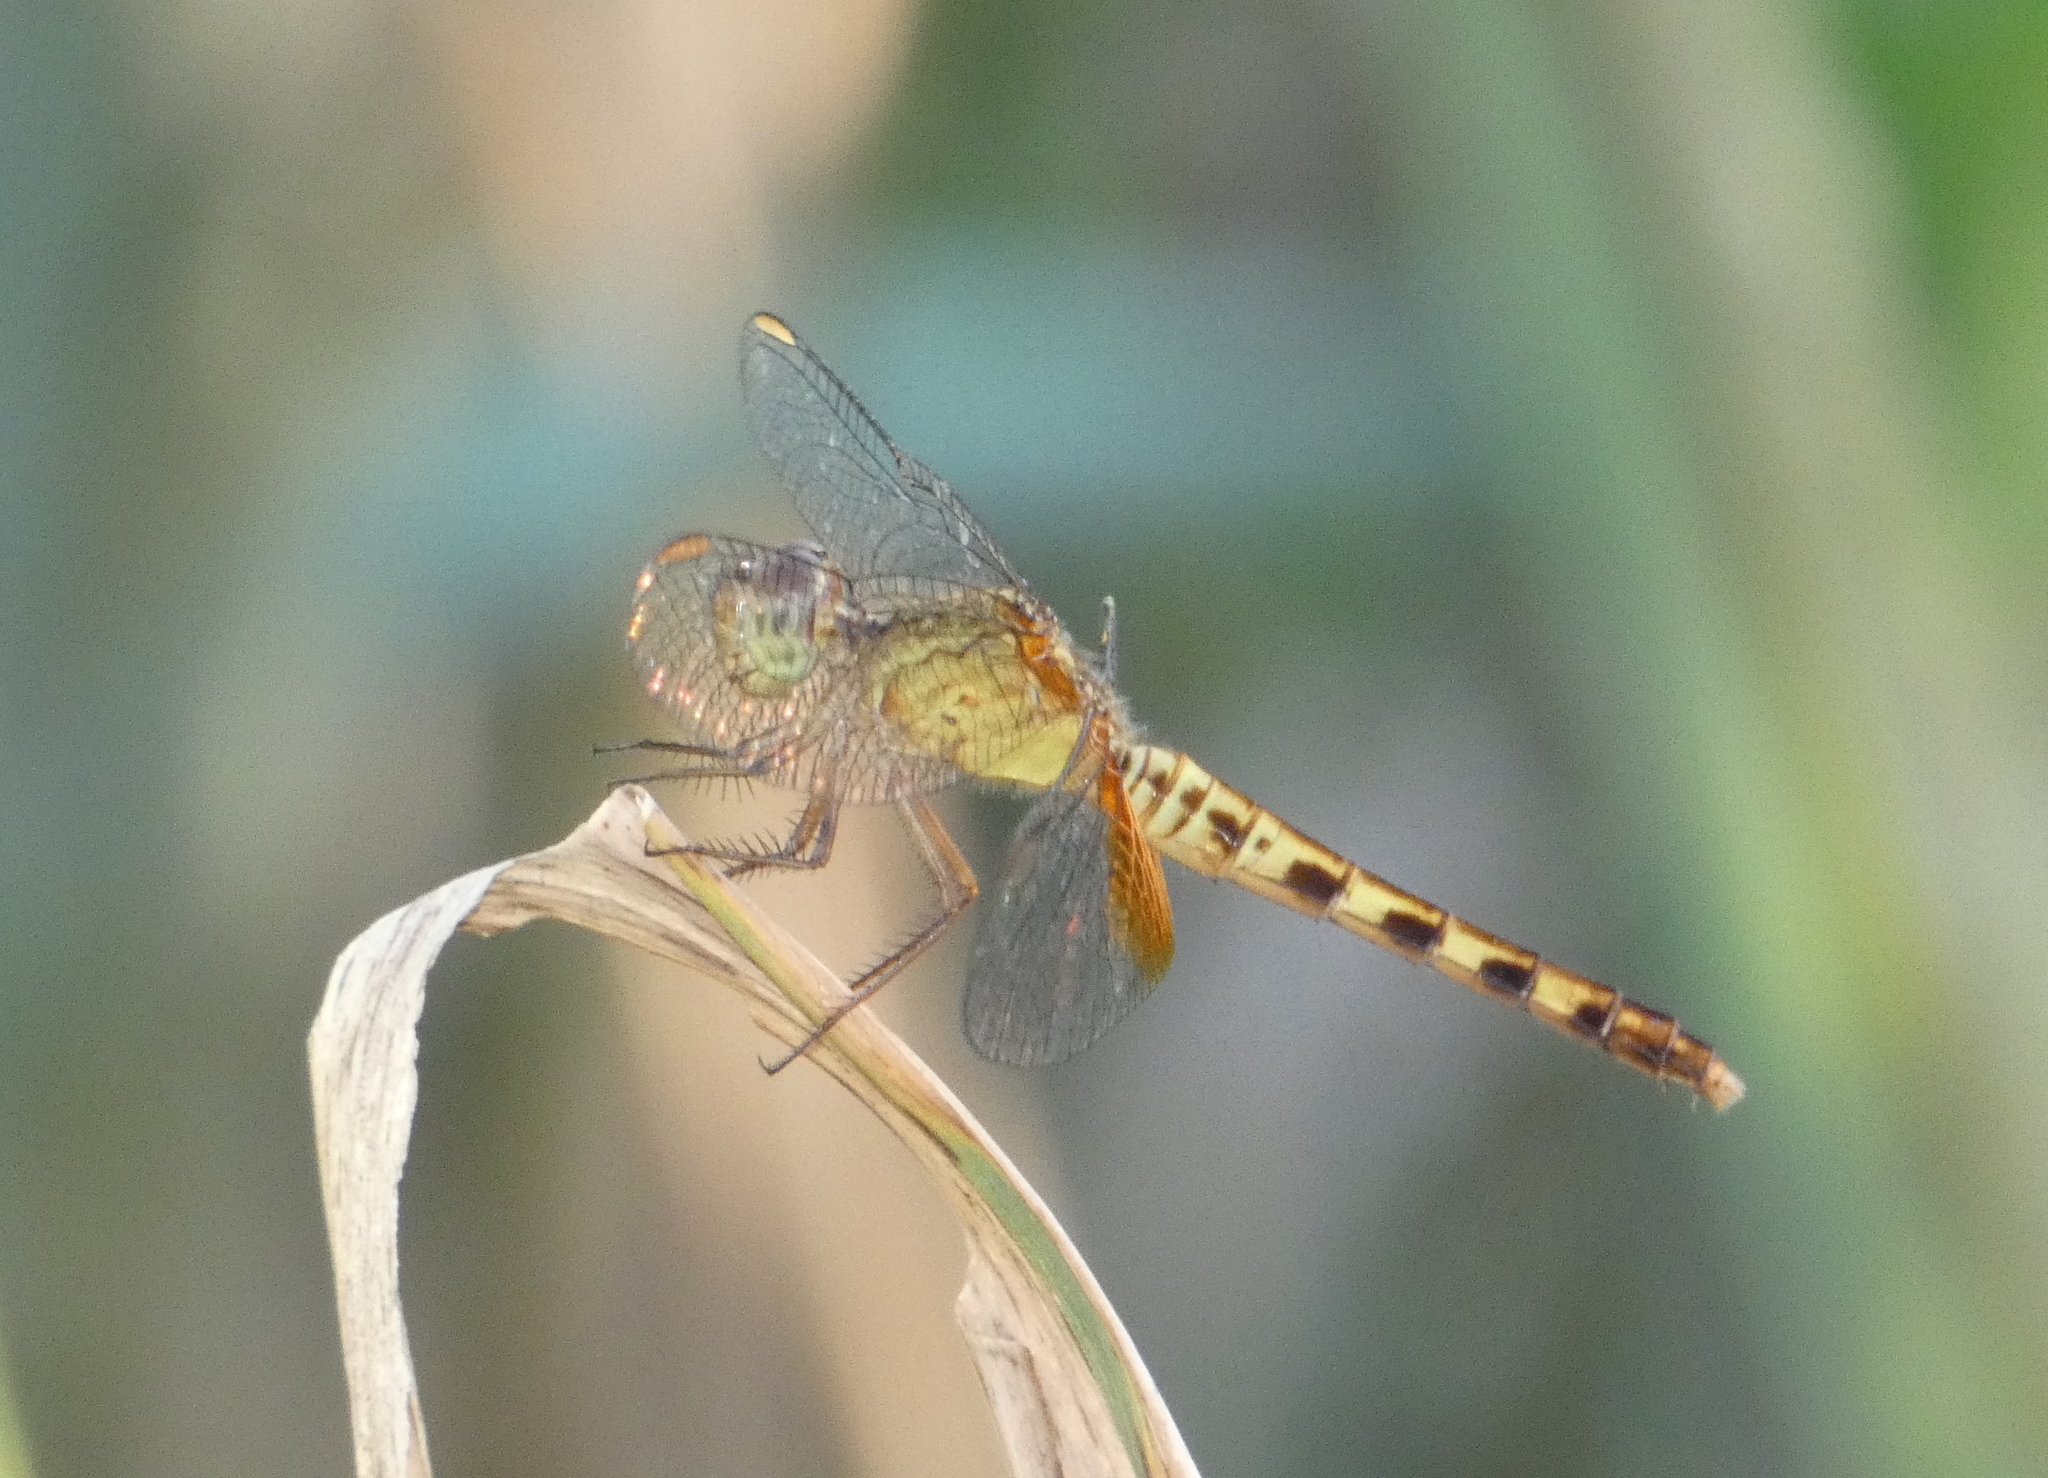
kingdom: Animalia
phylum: Arthropoda
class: Insecta
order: Odonata
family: Libellulidae
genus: Erythrodiplax
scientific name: Erythrodiplax umbrata
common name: Band-winged dragonlet
